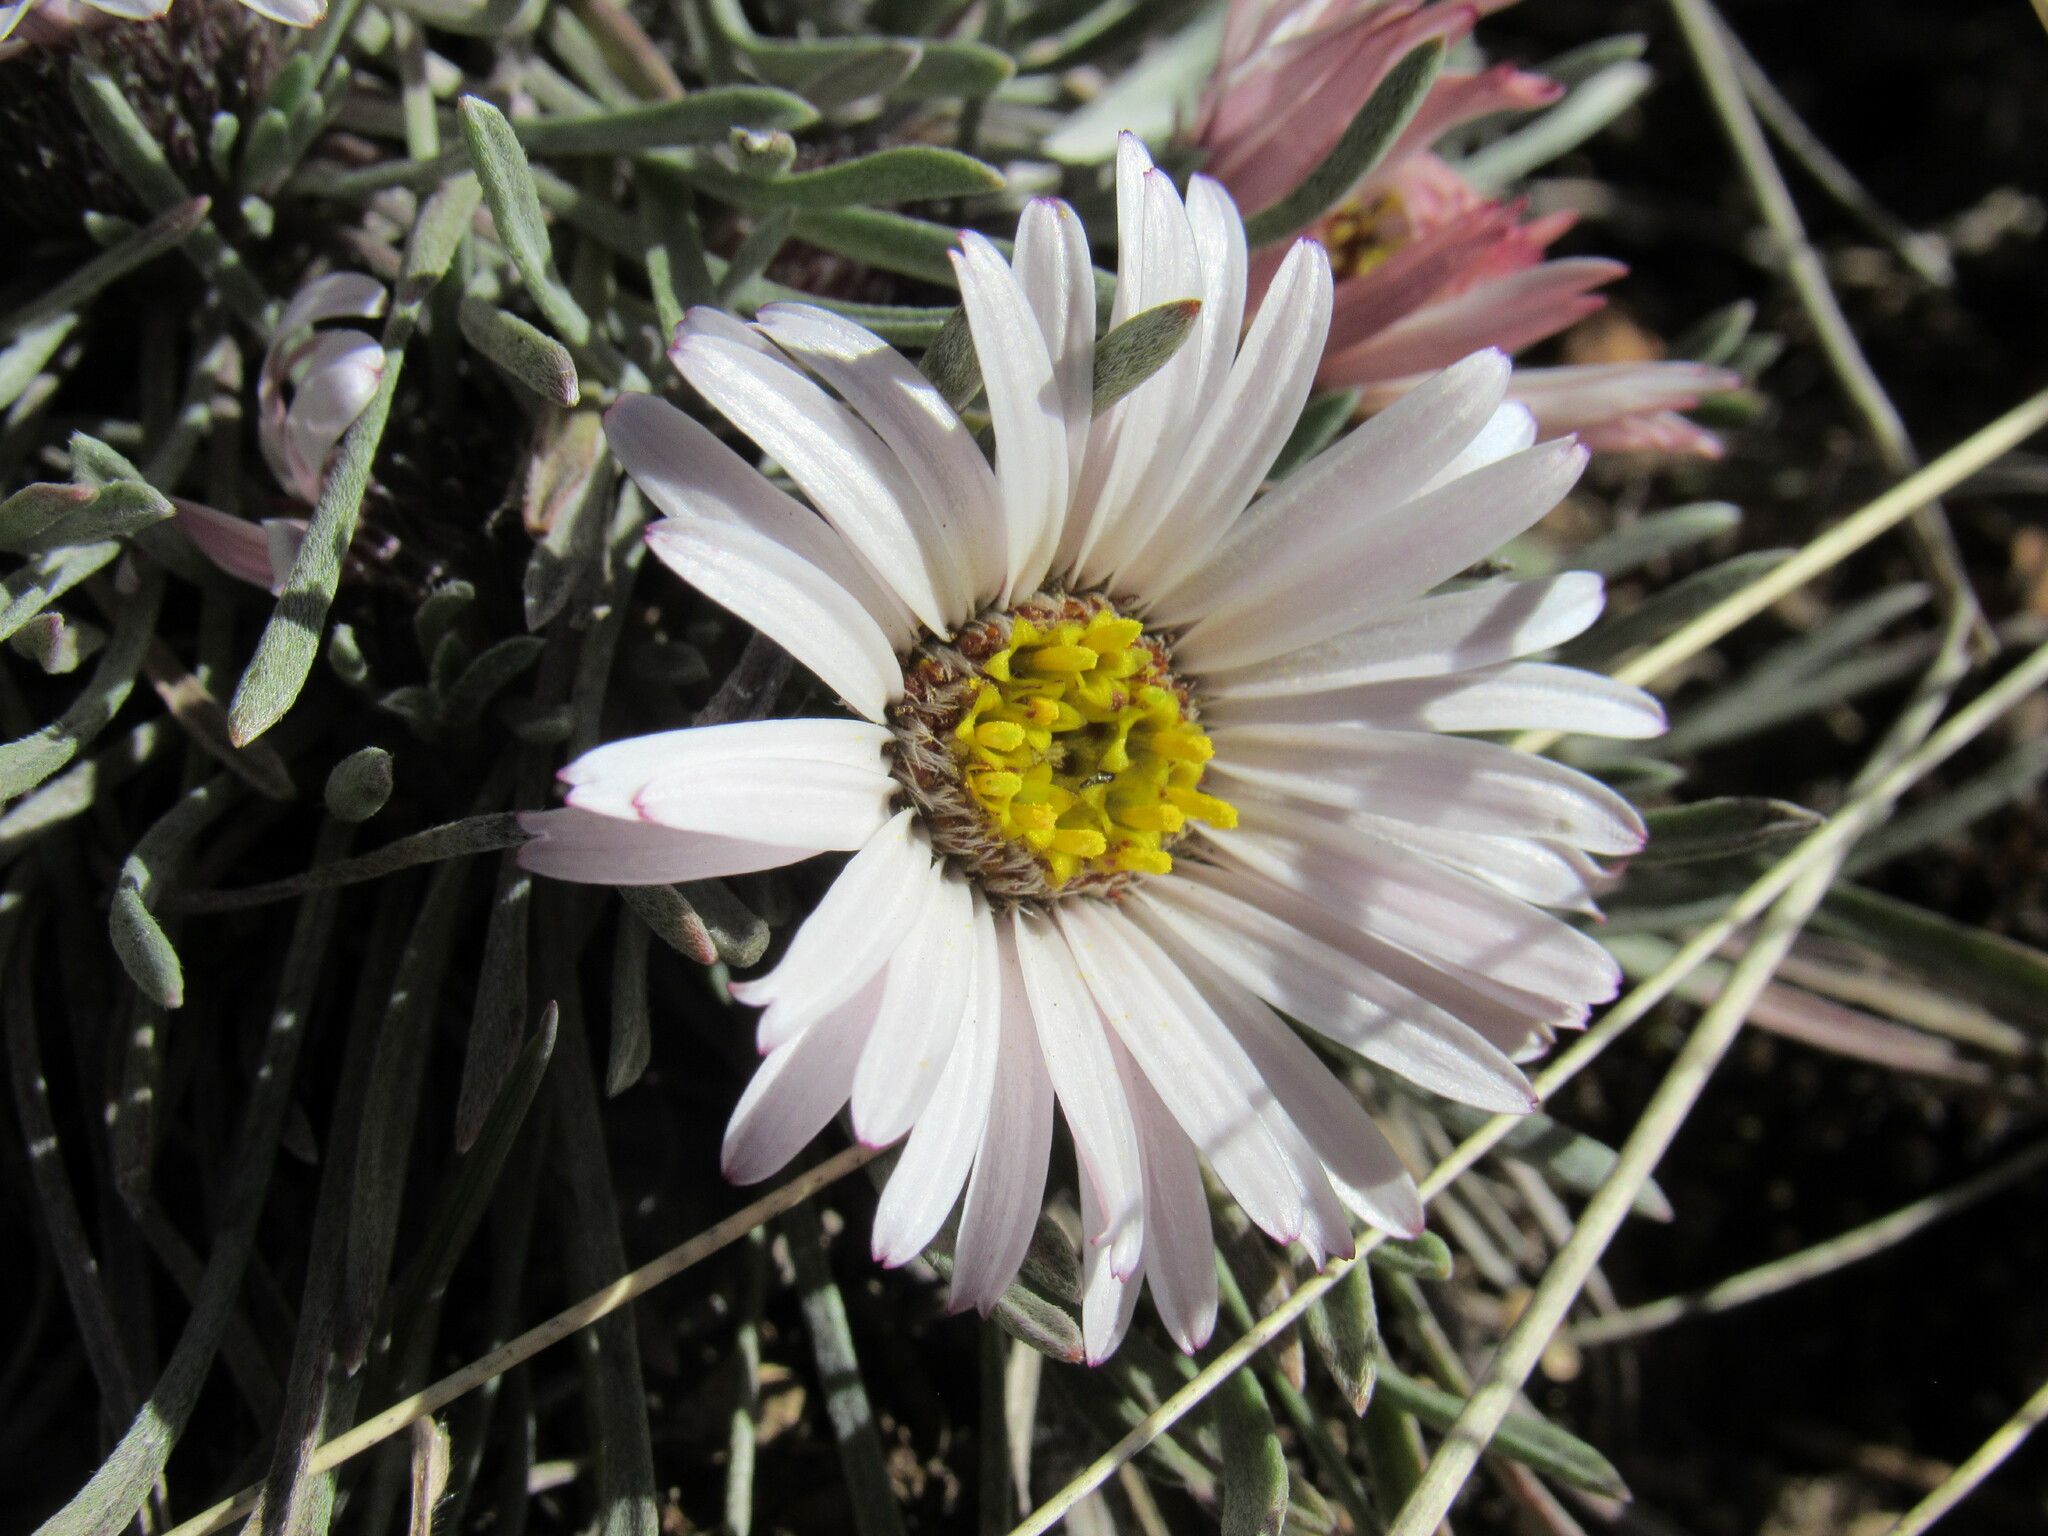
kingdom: Plantae
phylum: Tracheophyta
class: Magnoliopsida
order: Asterales
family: Asteraceae
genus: Townsendia
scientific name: Townsendia hookeri
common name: Hooker's townsend daisy
